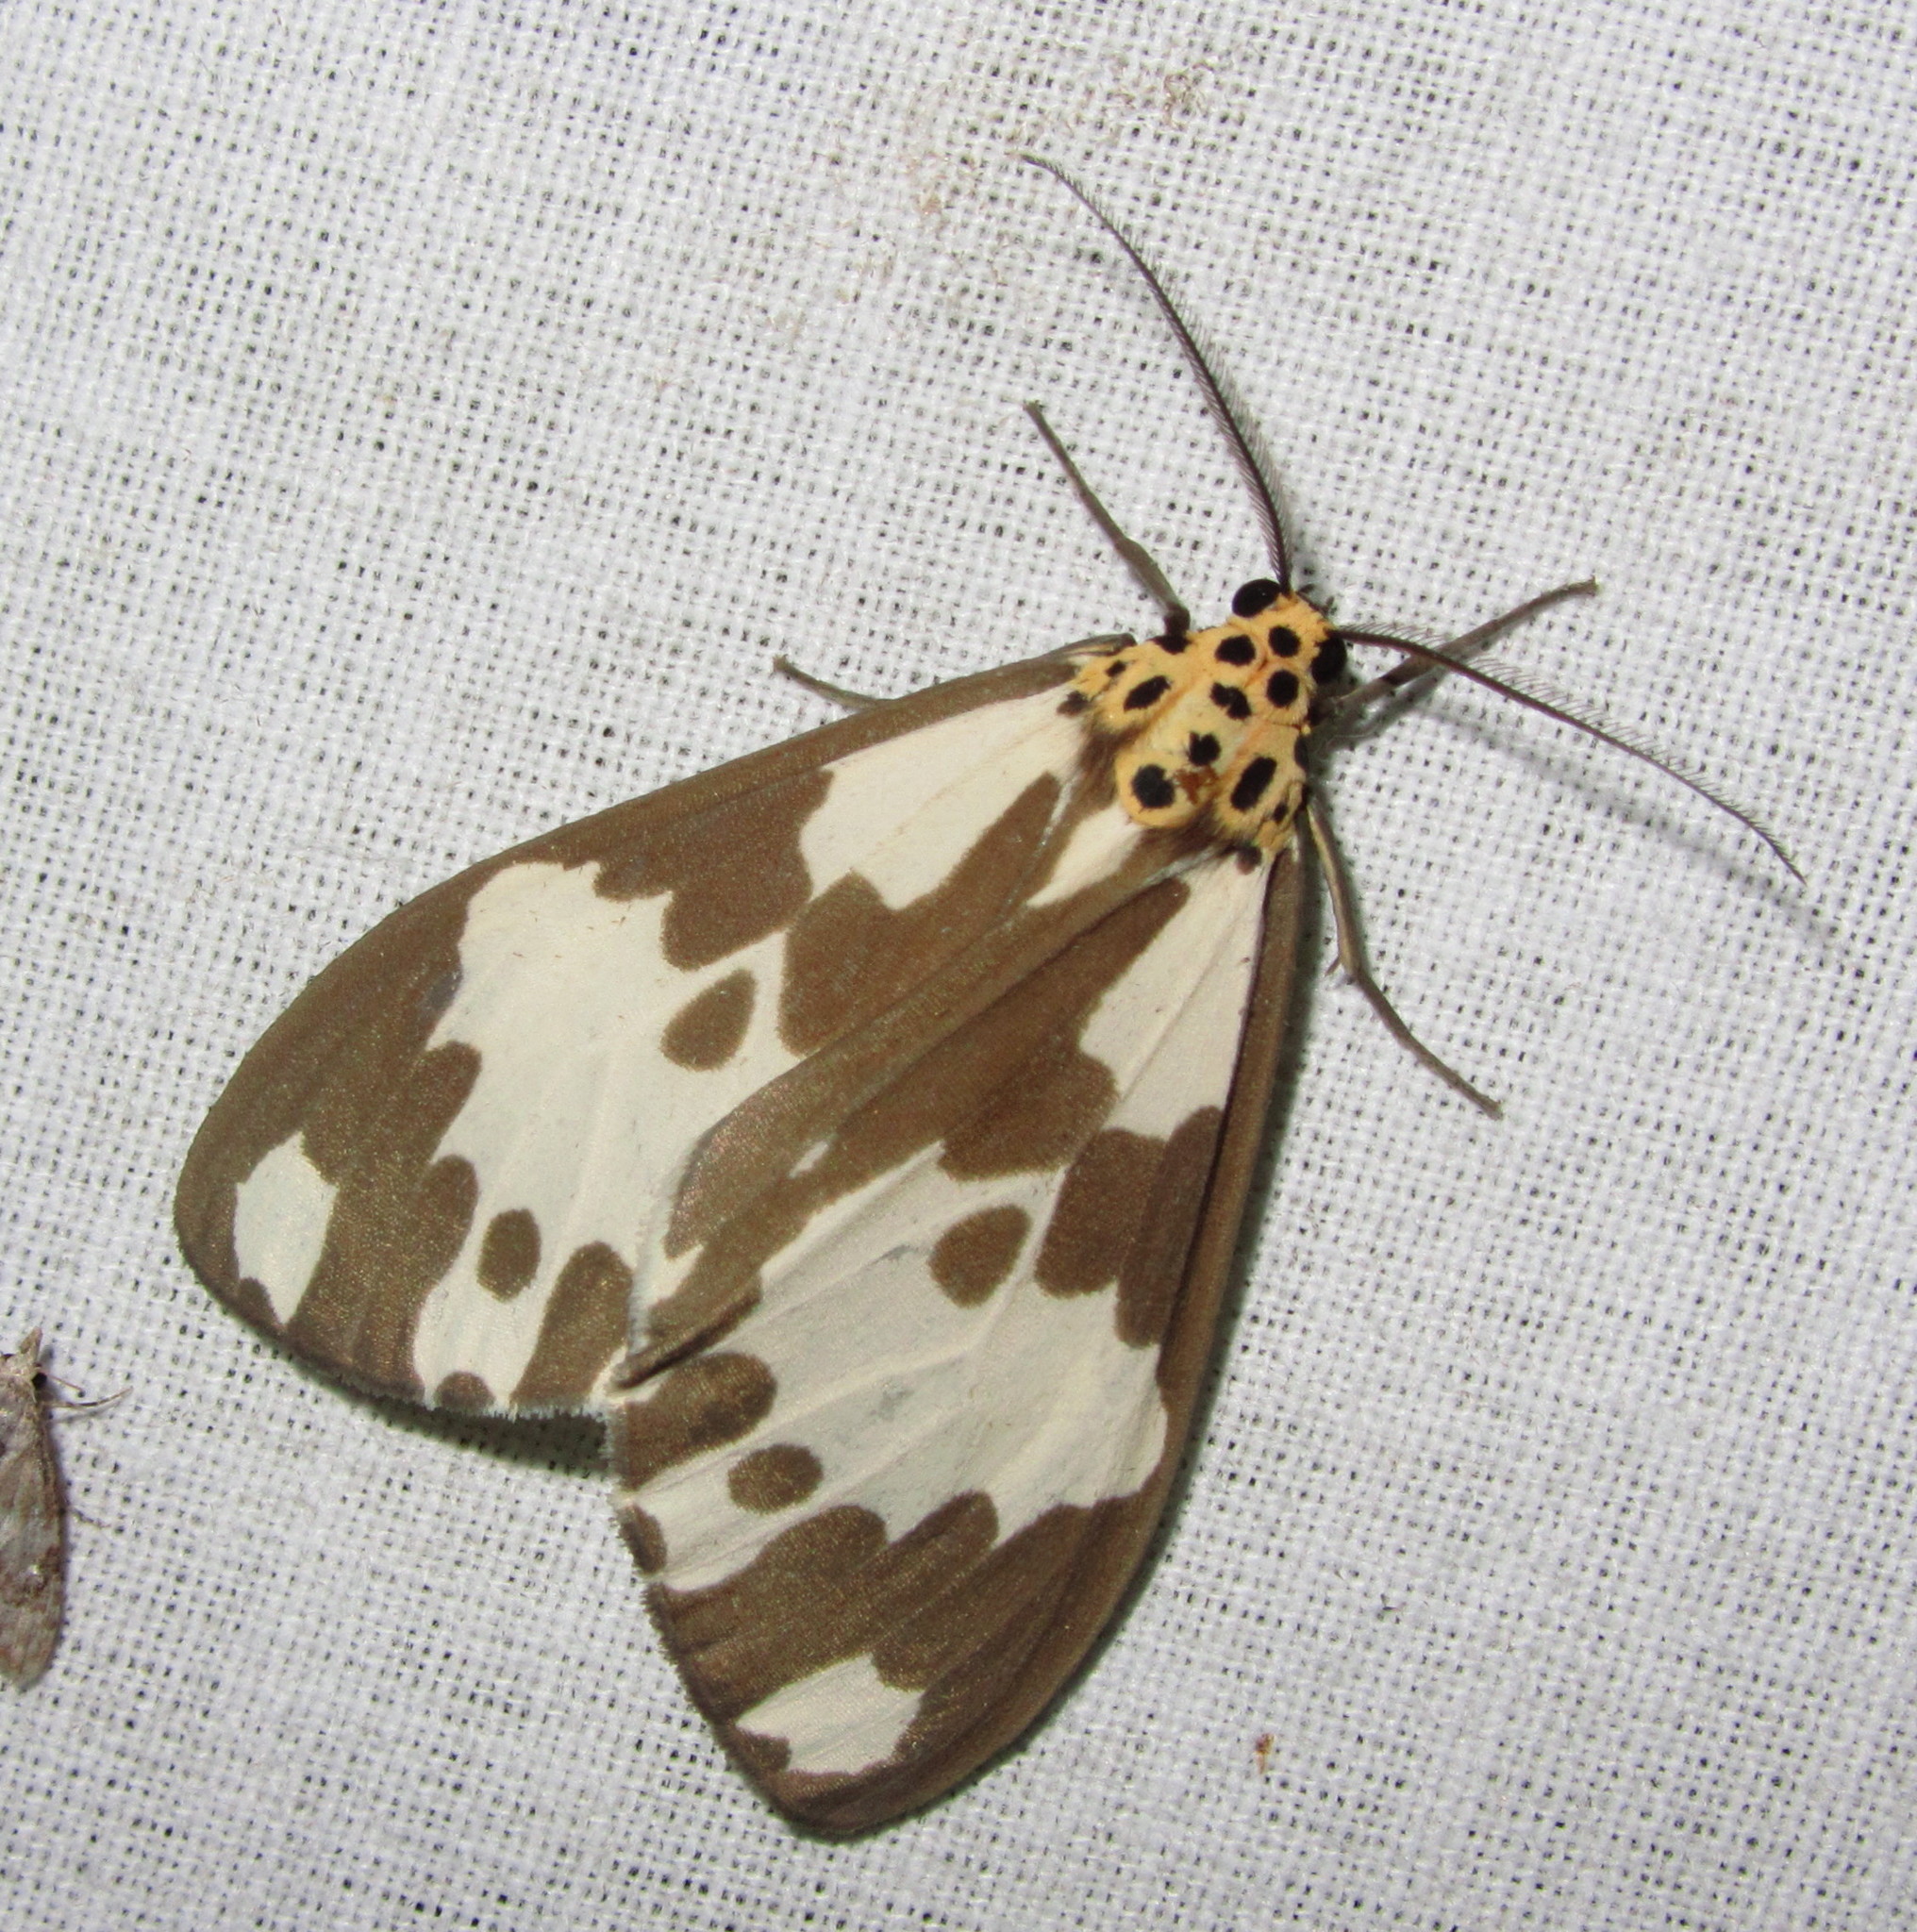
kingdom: Animalia
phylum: Arthropoda
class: Insecta
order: Lepidoptera
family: Erebidae
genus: Nyctemera
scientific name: Nyctemera carissima
